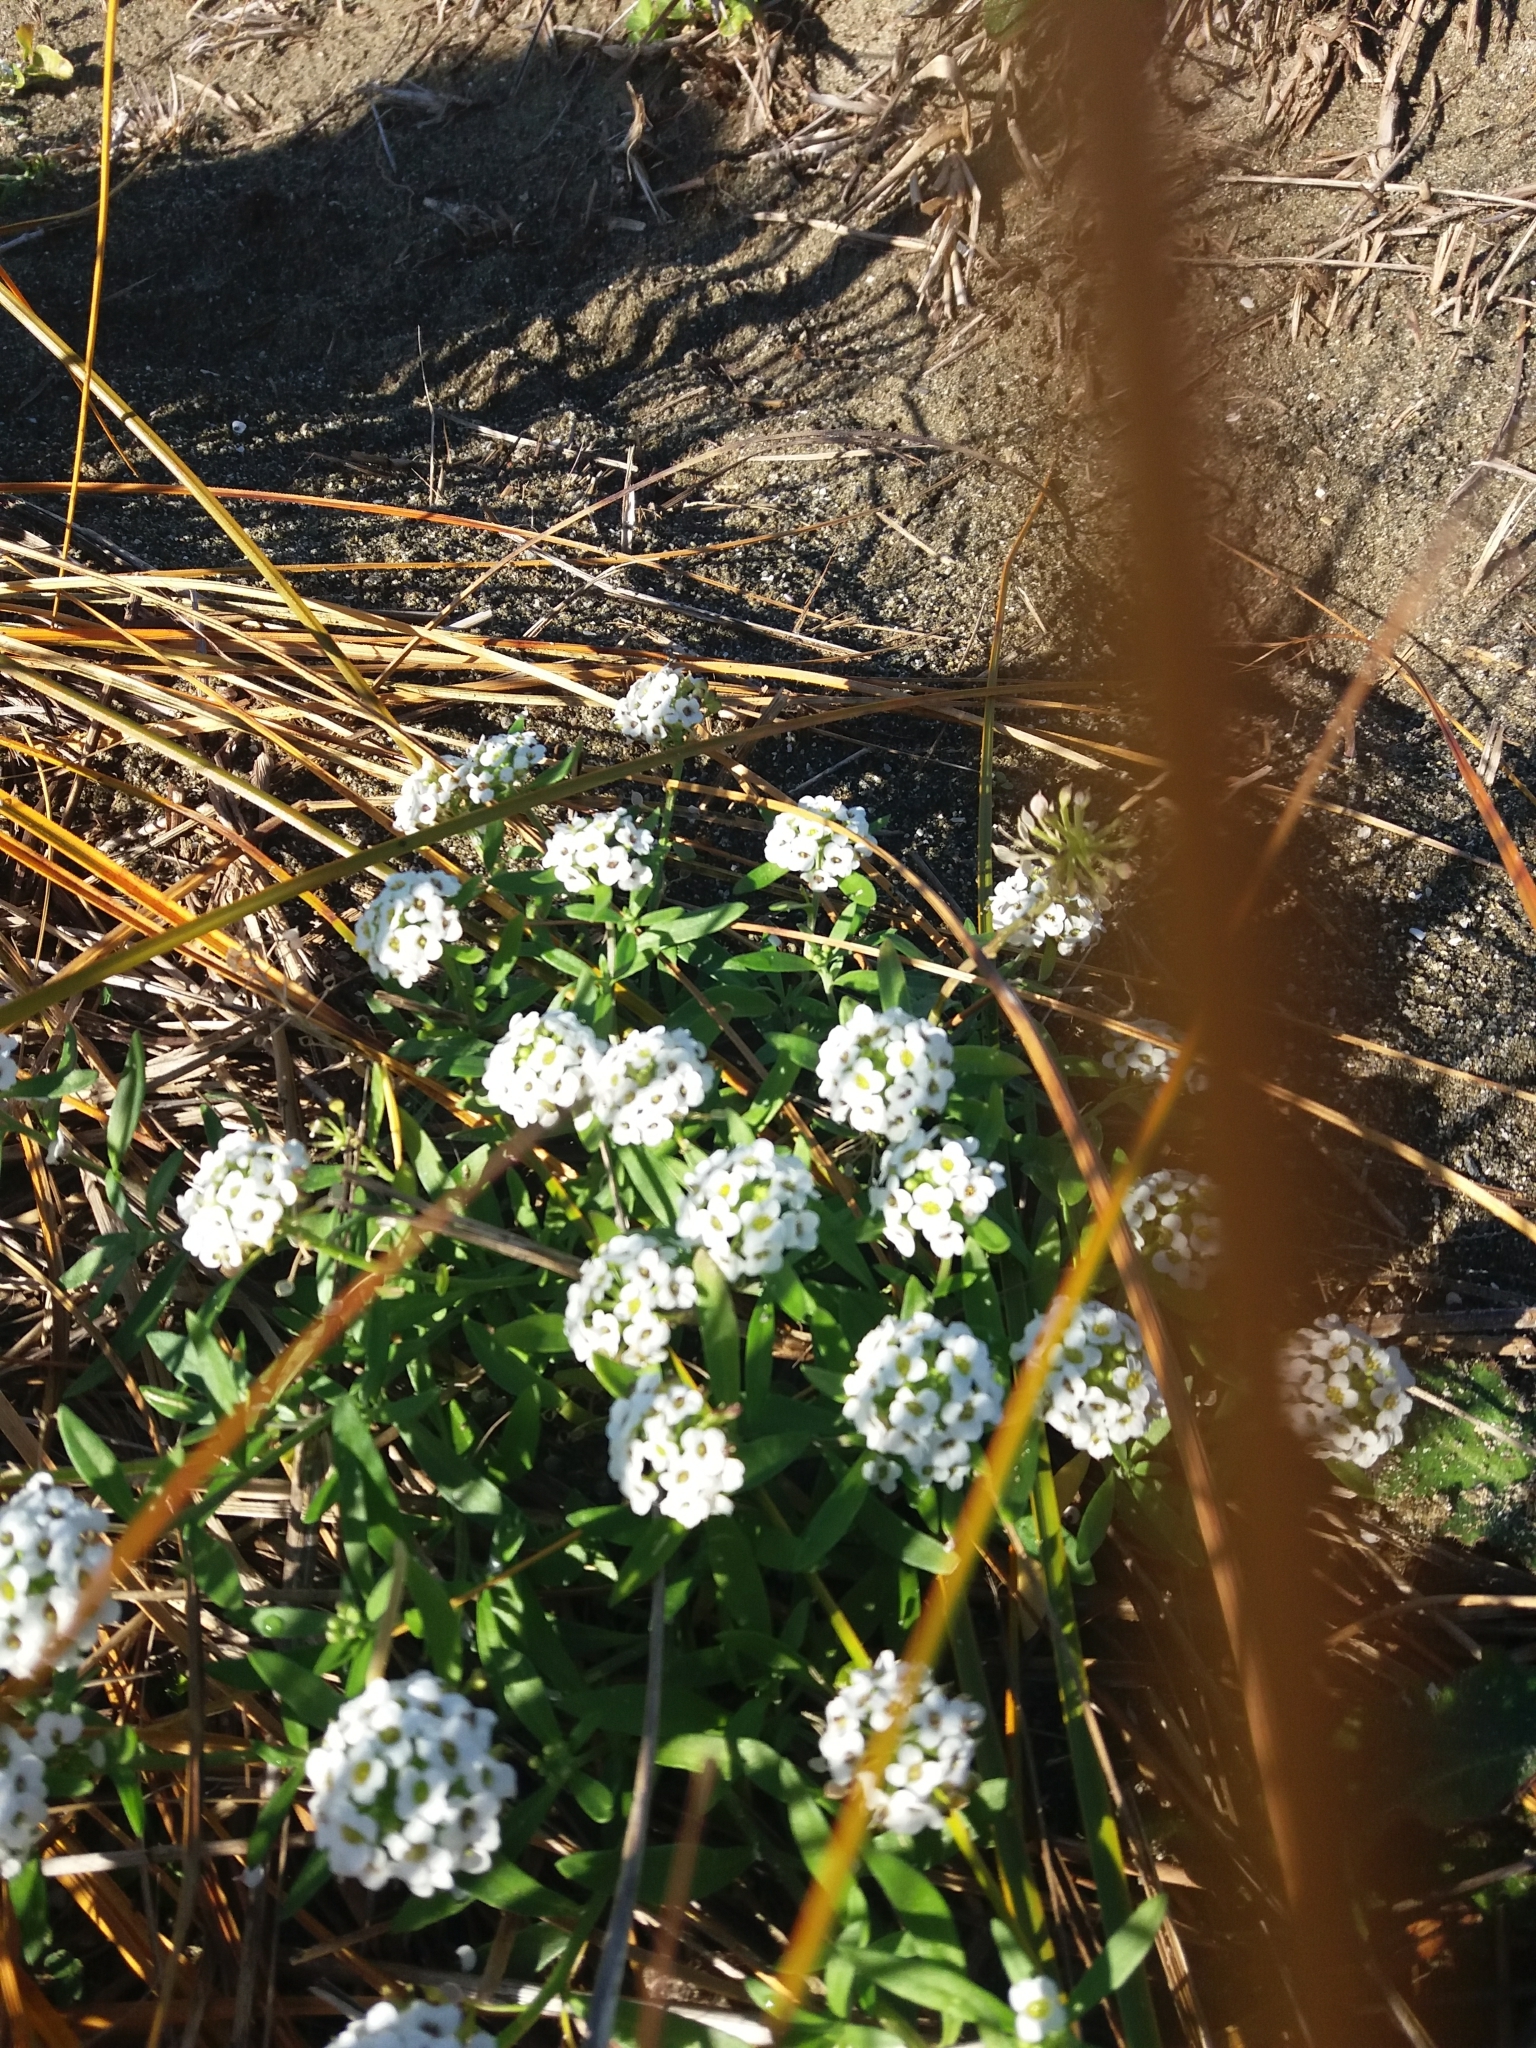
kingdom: Plantae
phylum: Tracheophyta
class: Magnoliopsida
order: Brassicales
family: Brassicaceae
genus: Lobularia
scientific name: Lobularia maritima
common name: Sweet alison
